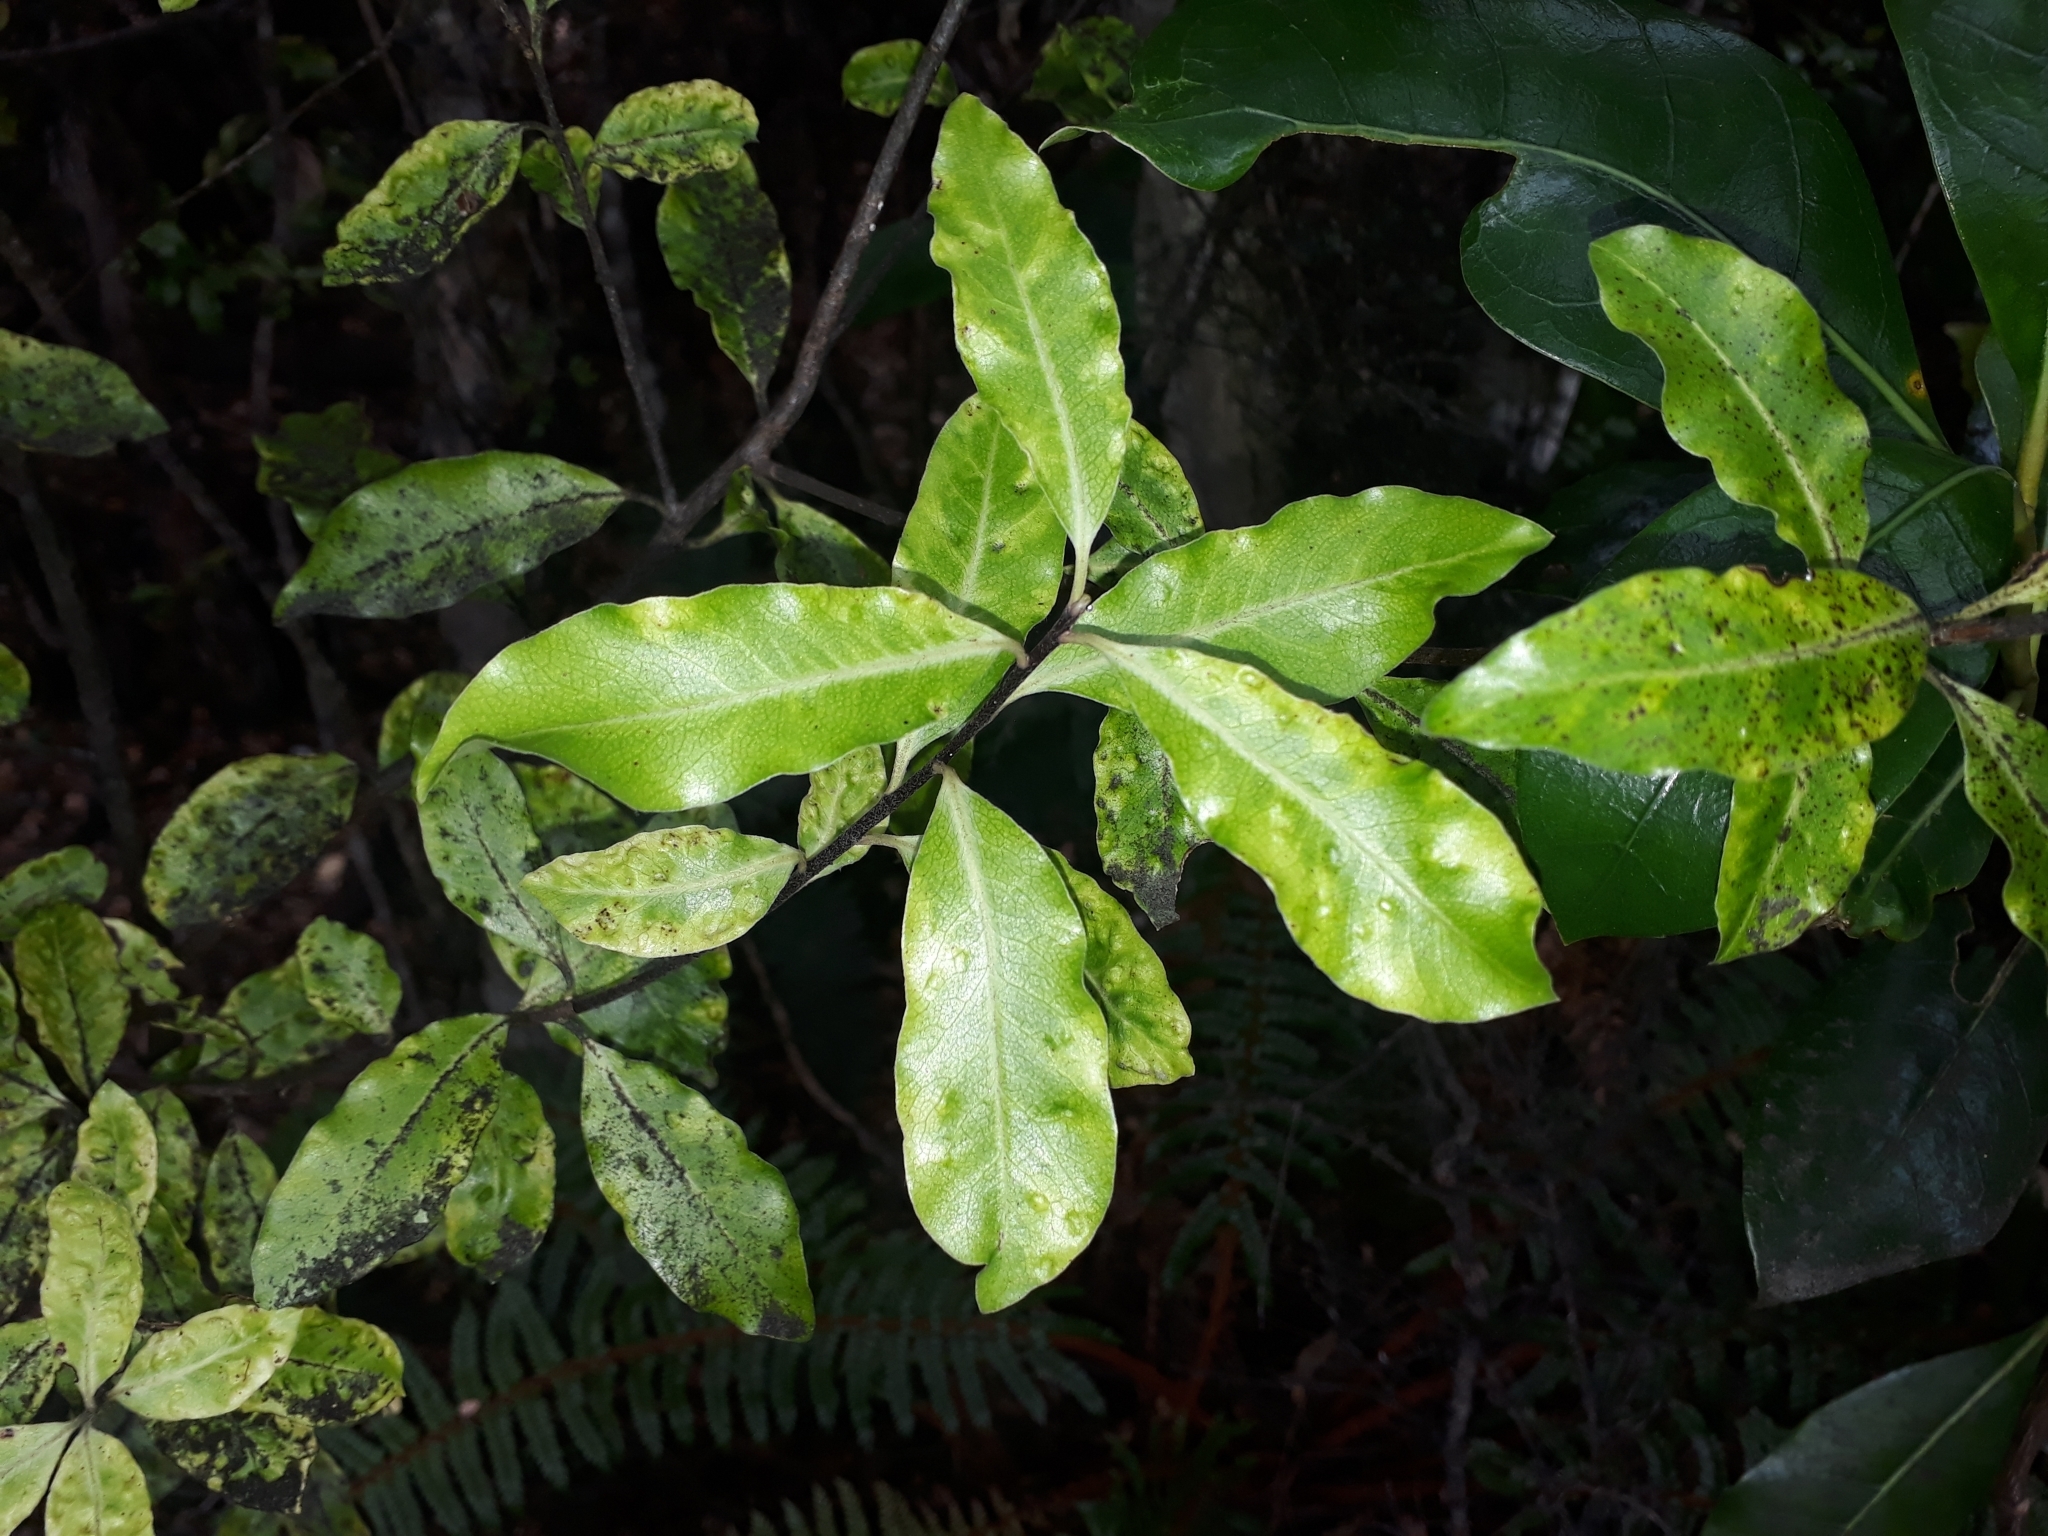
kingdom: Plantae
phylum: Tracheophyta
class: Magnoliopsida
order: Apiales
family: Pittosporaceae
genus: Pittosporum
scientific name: Pittosporum eugenioides
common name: Lemonwood
